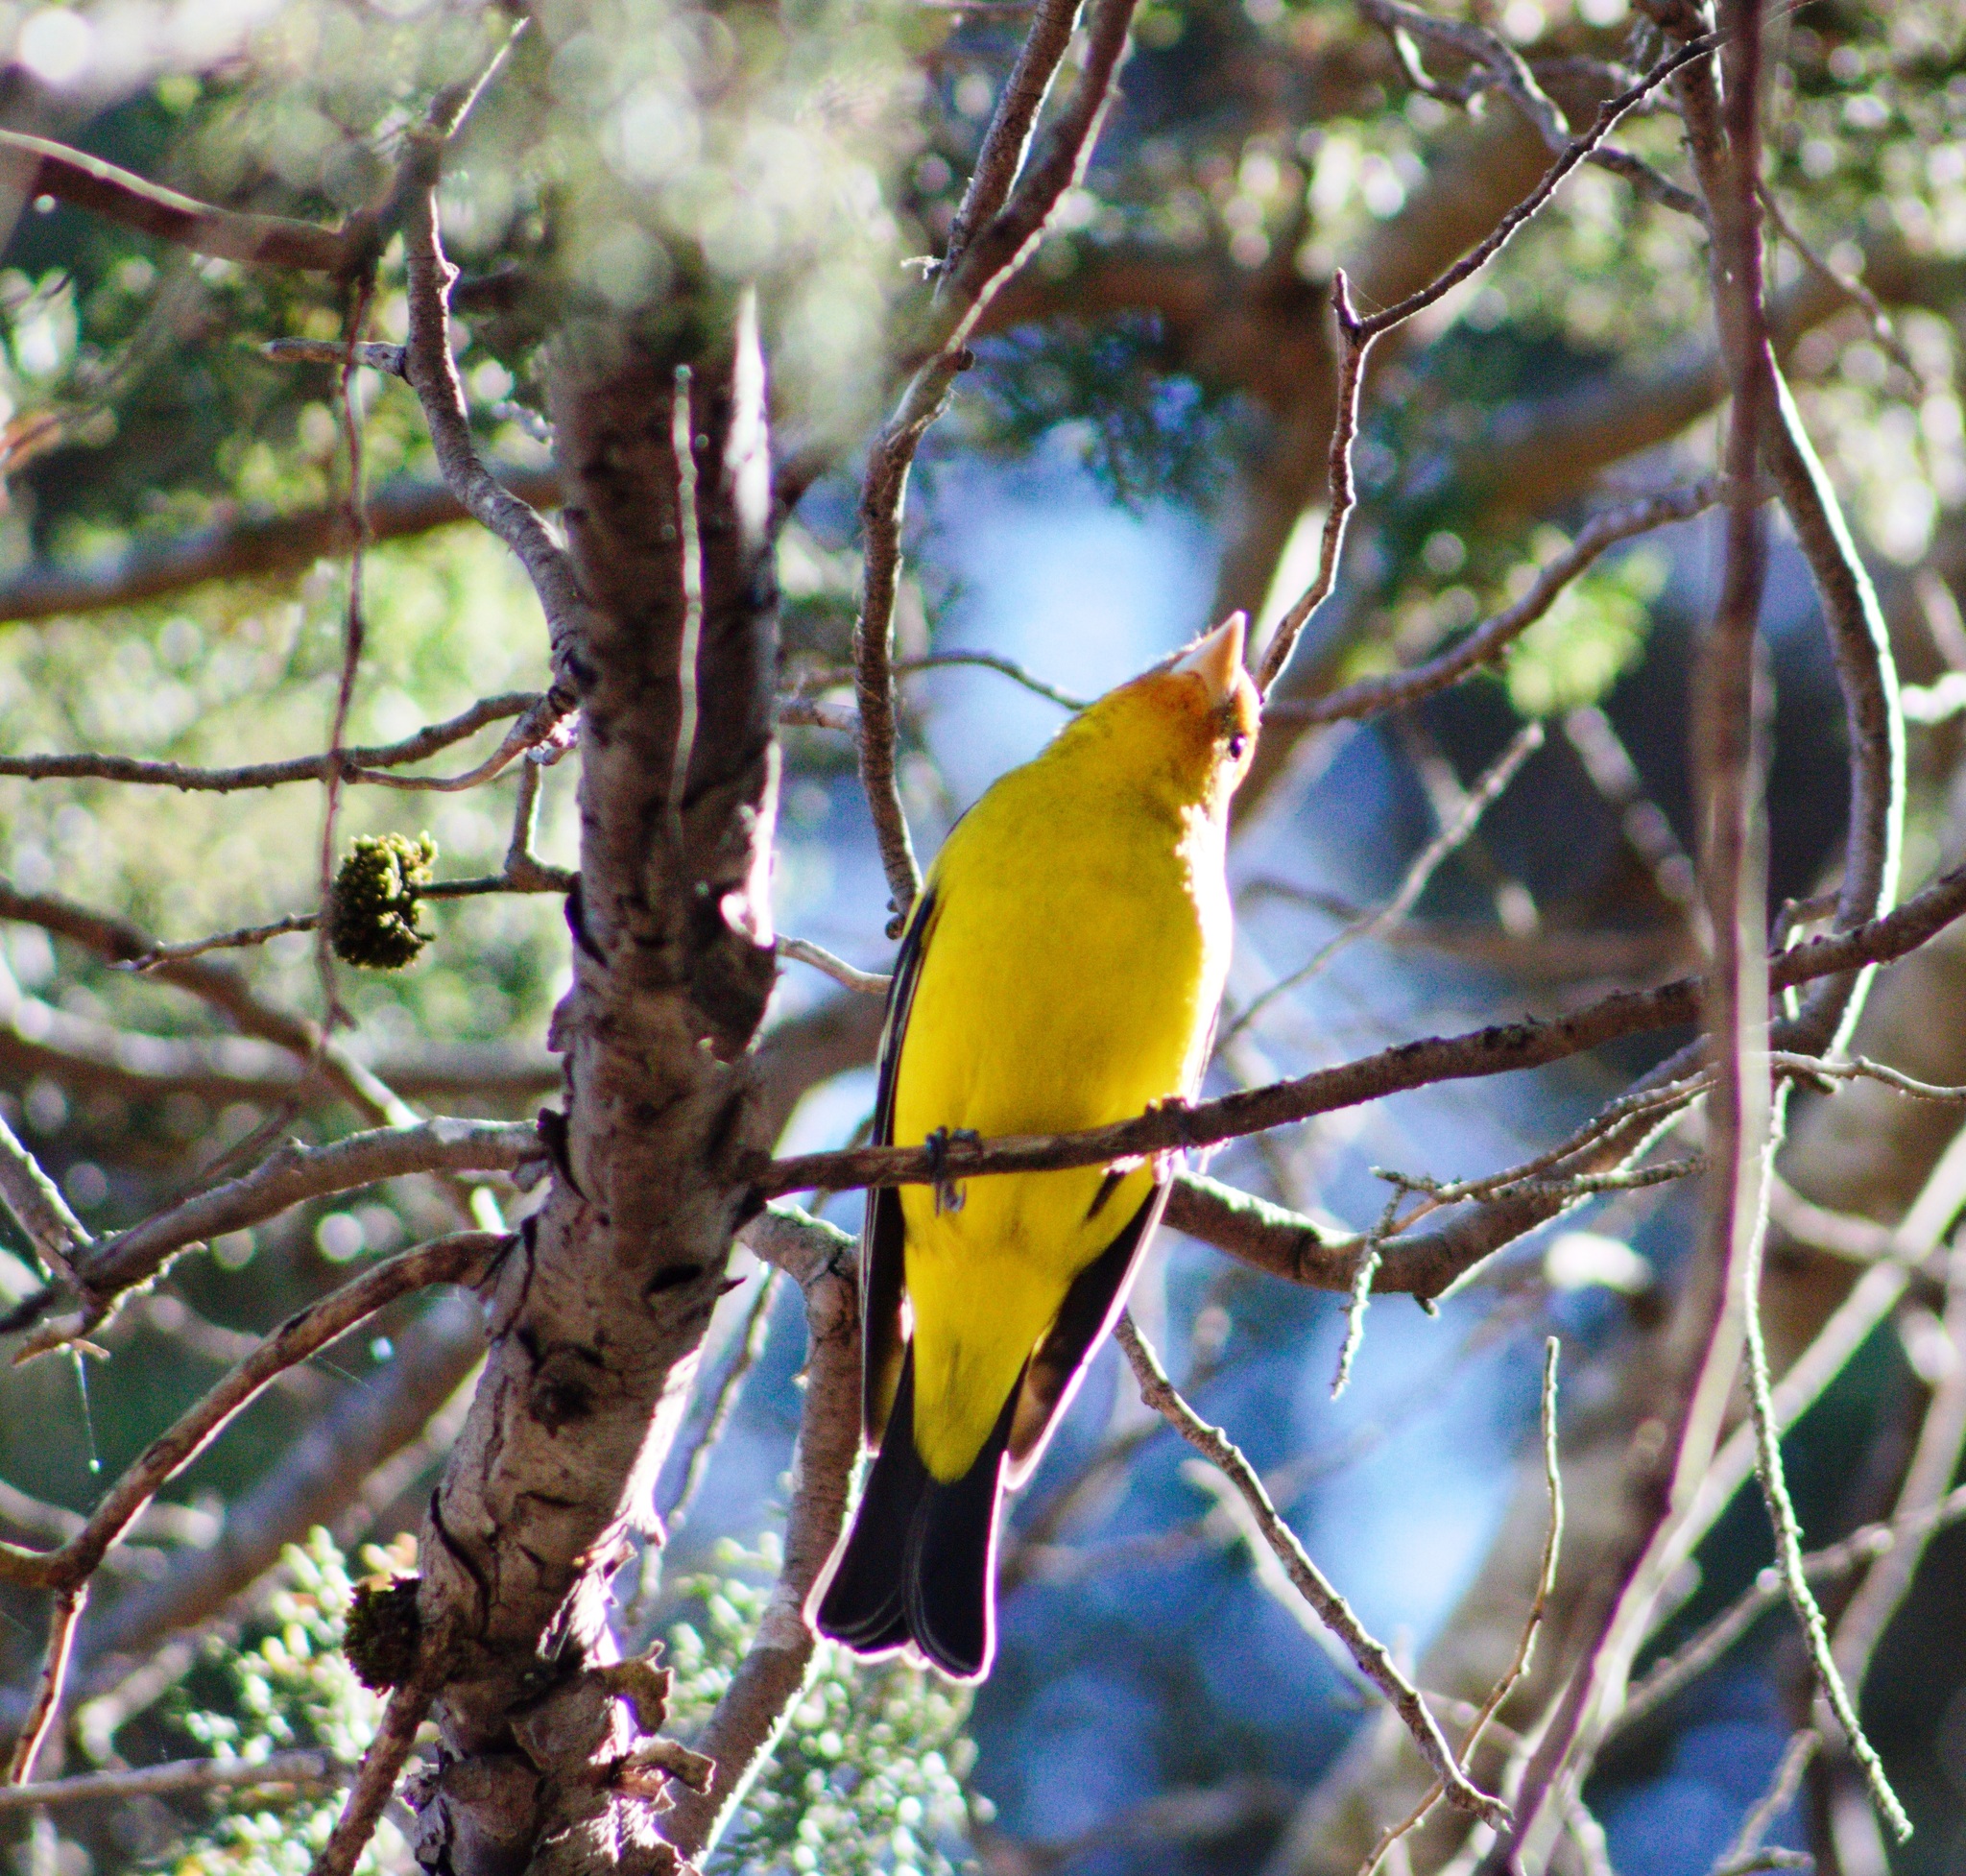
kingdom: Animalia
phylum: Chordata
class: Aves
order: Passeriformes
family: Cardinalidae
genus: Piranga
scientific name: Piranga ludoviciana
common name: Western tanager
